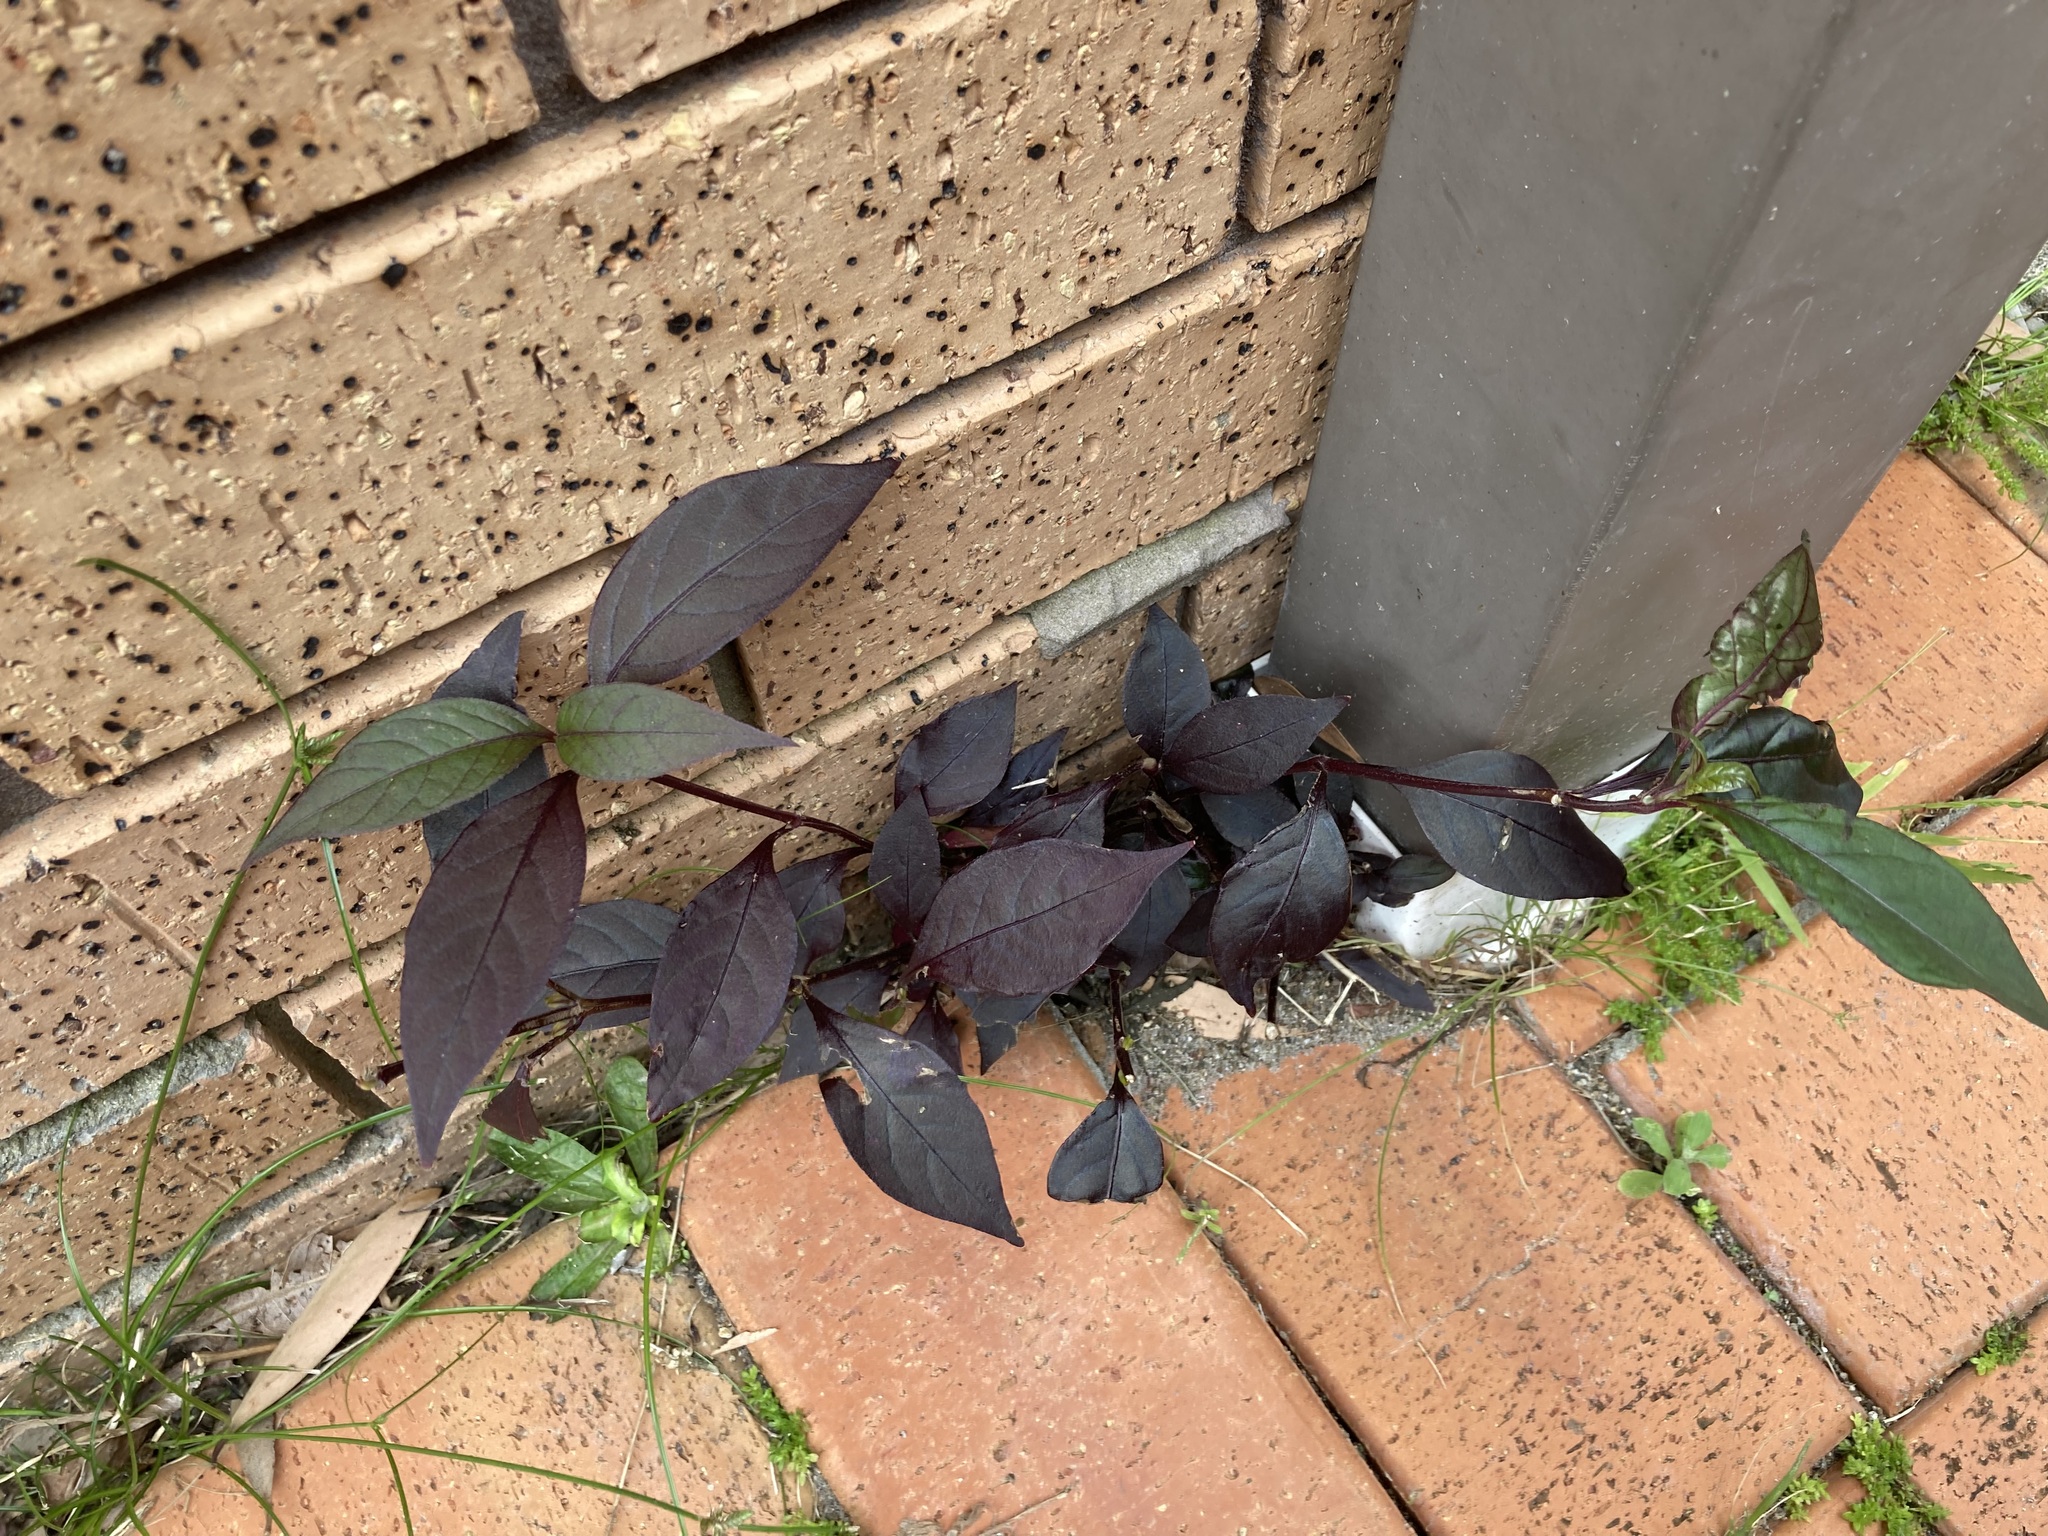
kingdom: Plantae
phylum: Tracheophyta
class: Magnoliopsida
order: Caryophyllales
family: Amaranthaceae
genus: Alternanthera
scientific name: Alternanthera brasiliana
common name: Brazilian joyweed
